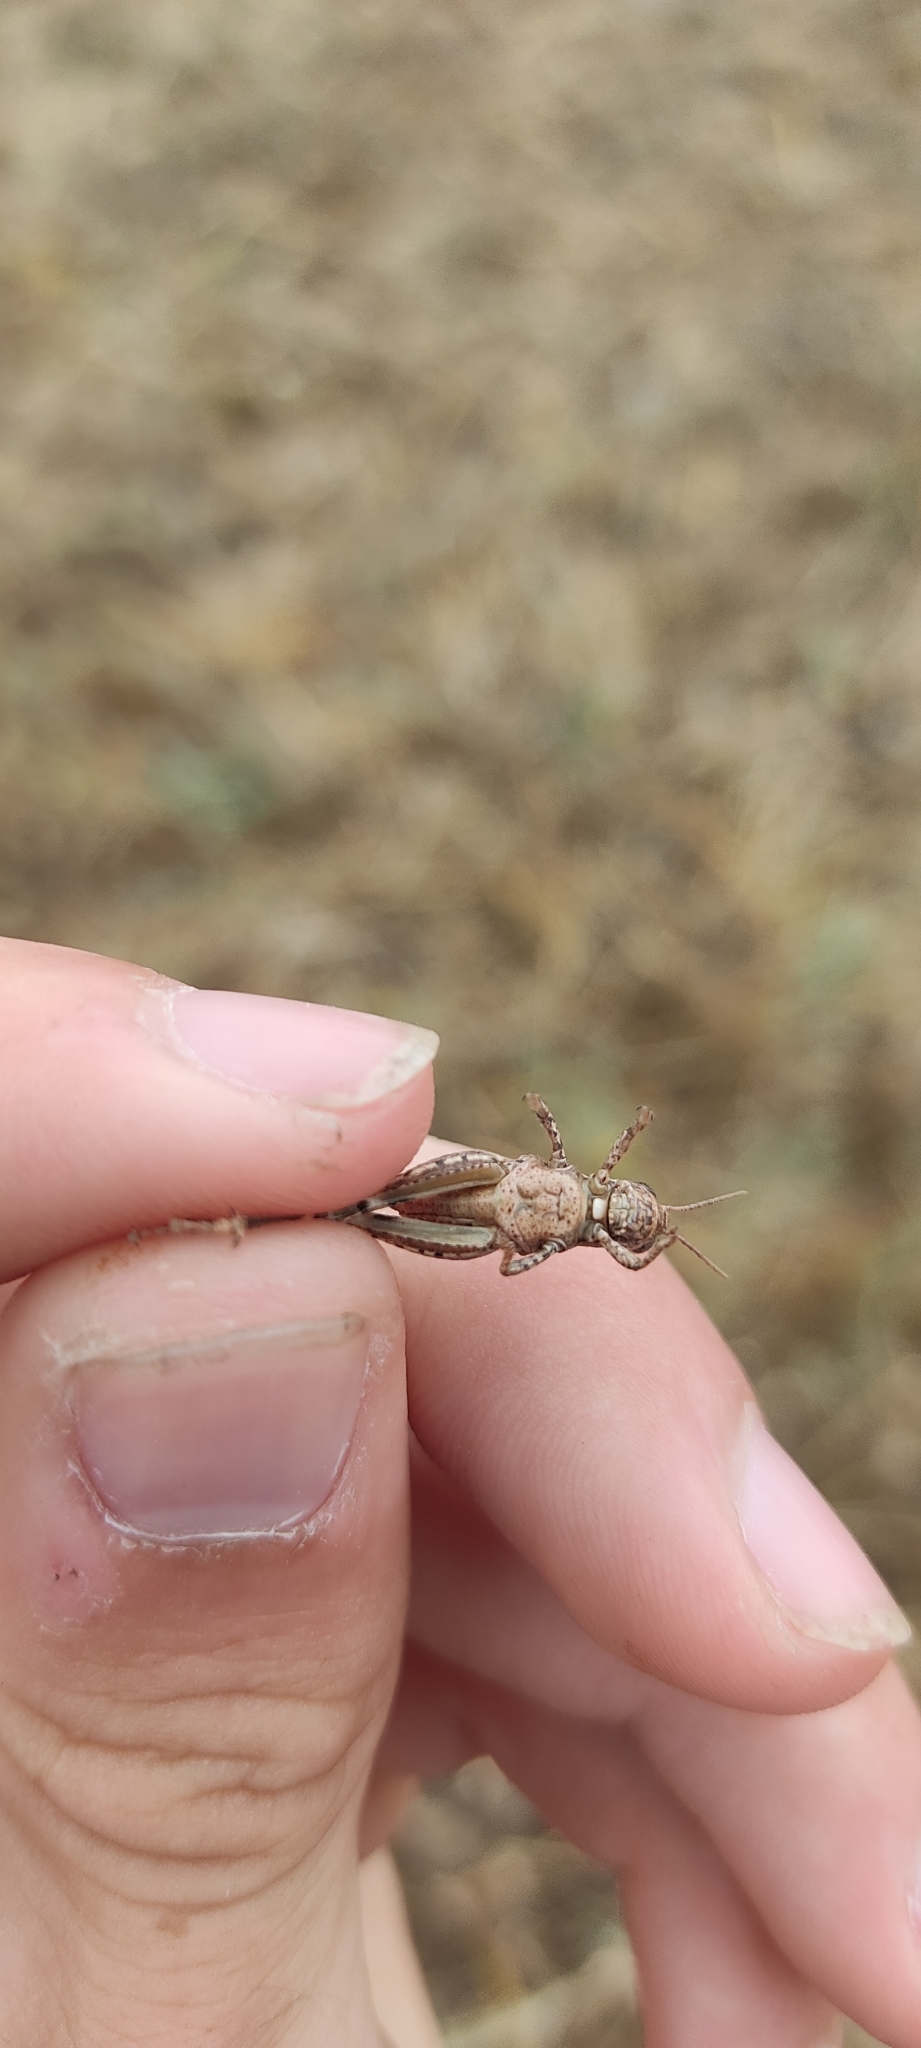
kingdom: Animalia
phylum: Arthropoda
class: Insecta
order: Orthoptera
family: Acrididae
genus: Pezotettix
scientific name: Pezotettix giornae
